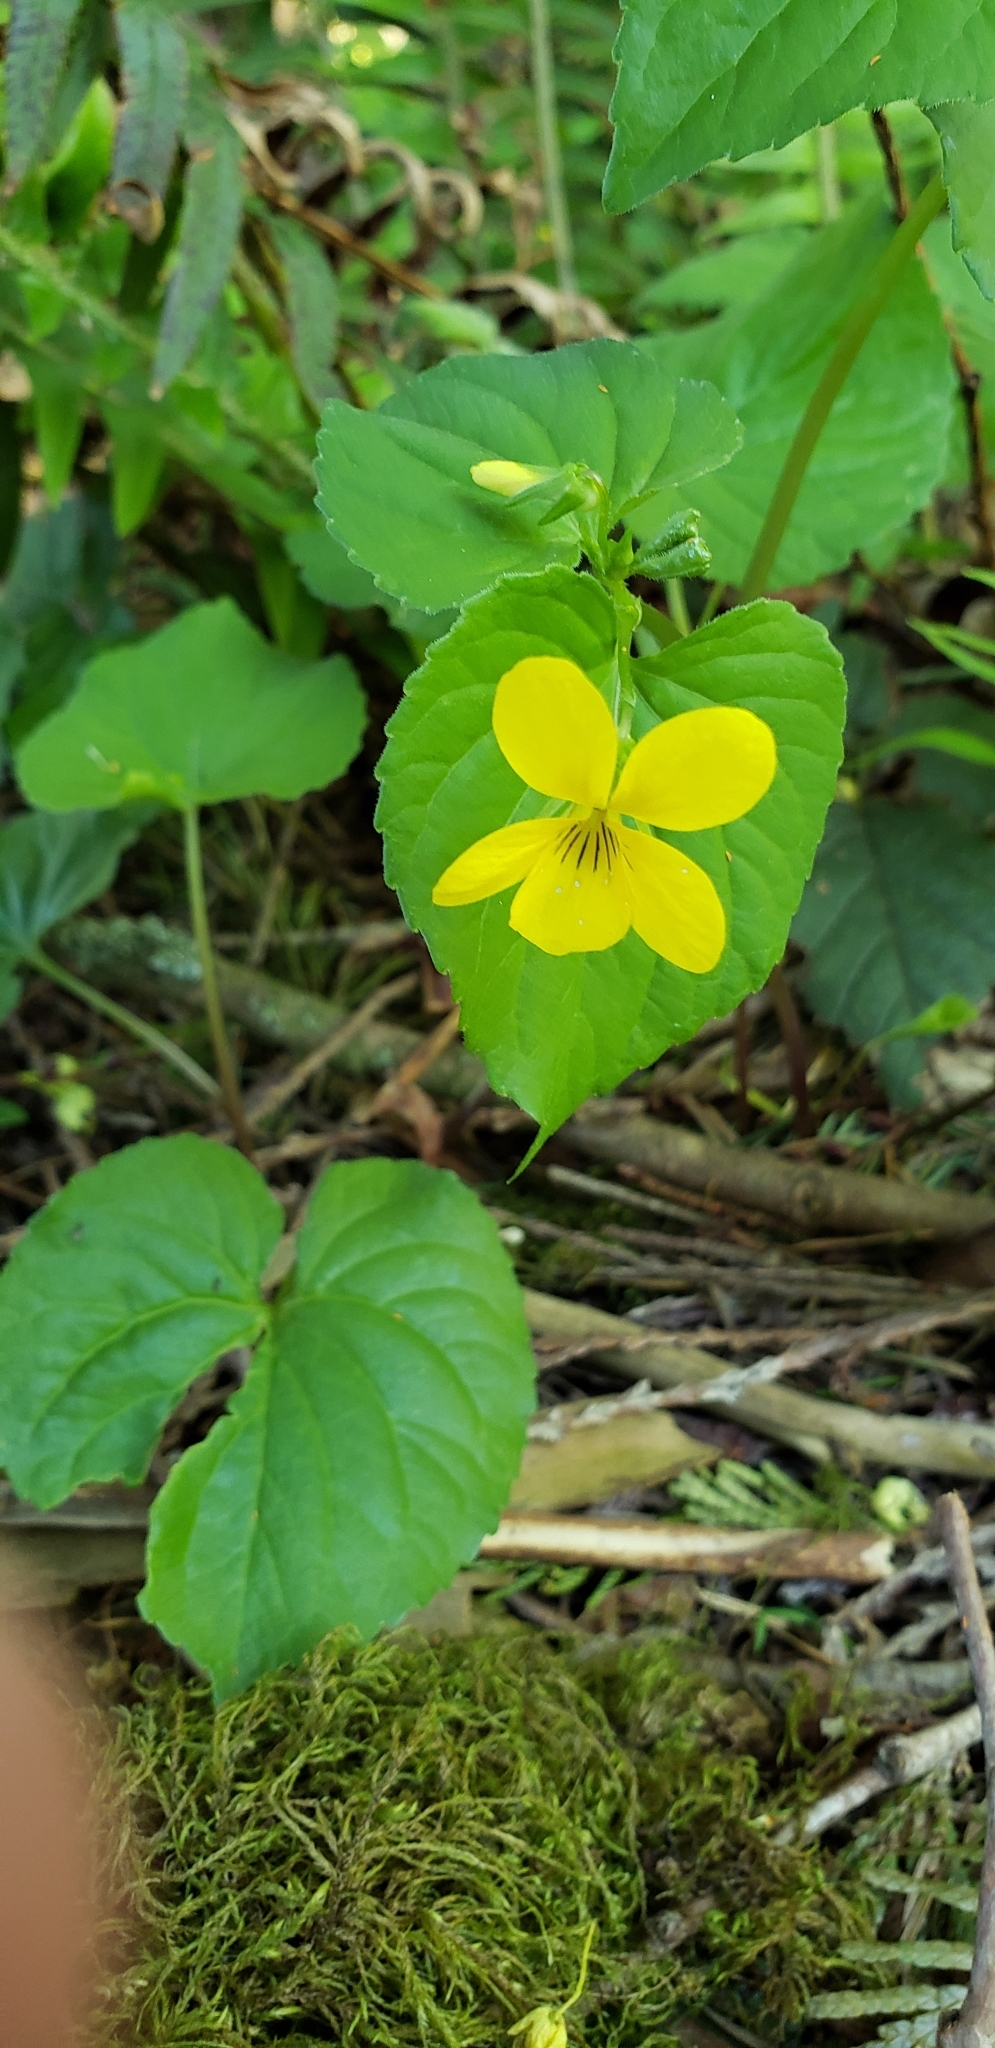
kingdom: Plantae
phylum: Tracheophyta
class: Magnoliopsida
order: Malpighiales
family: Violaceae
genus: Viola
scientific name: Viola glabella
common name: Stream violet
